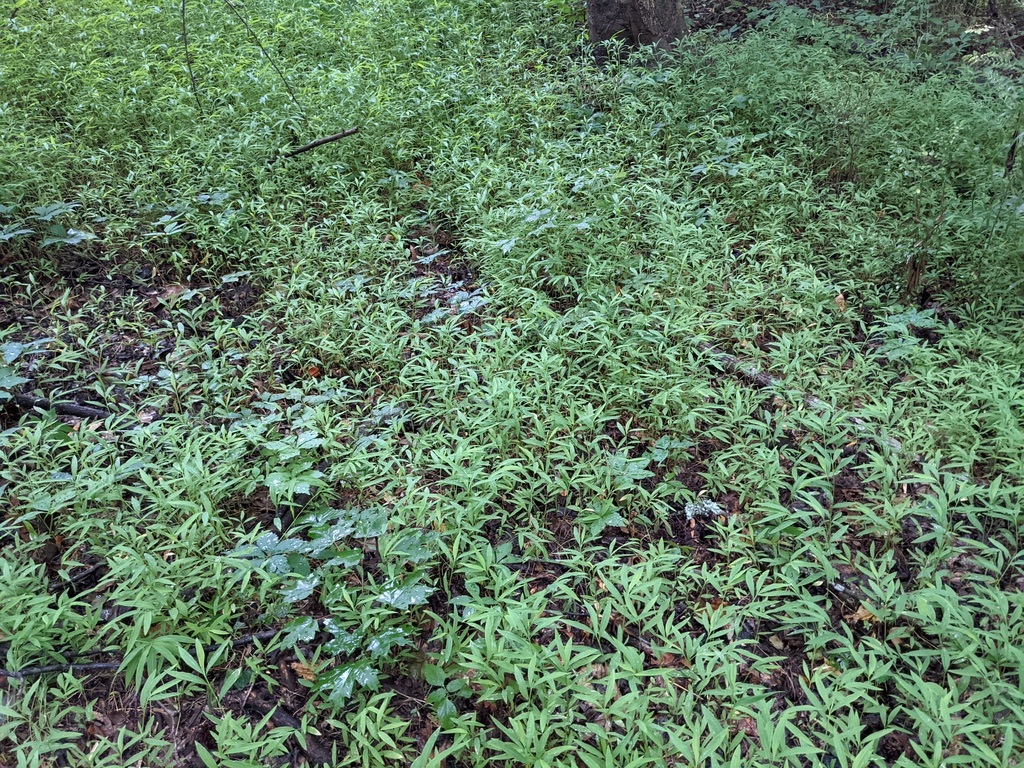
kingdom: Plantae
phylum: Tracheophyta
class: Liliopsida
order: Poales
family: Poaceae
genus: Microstegium
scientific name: Microstegium vimineum
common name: Japanese stiltgrass
